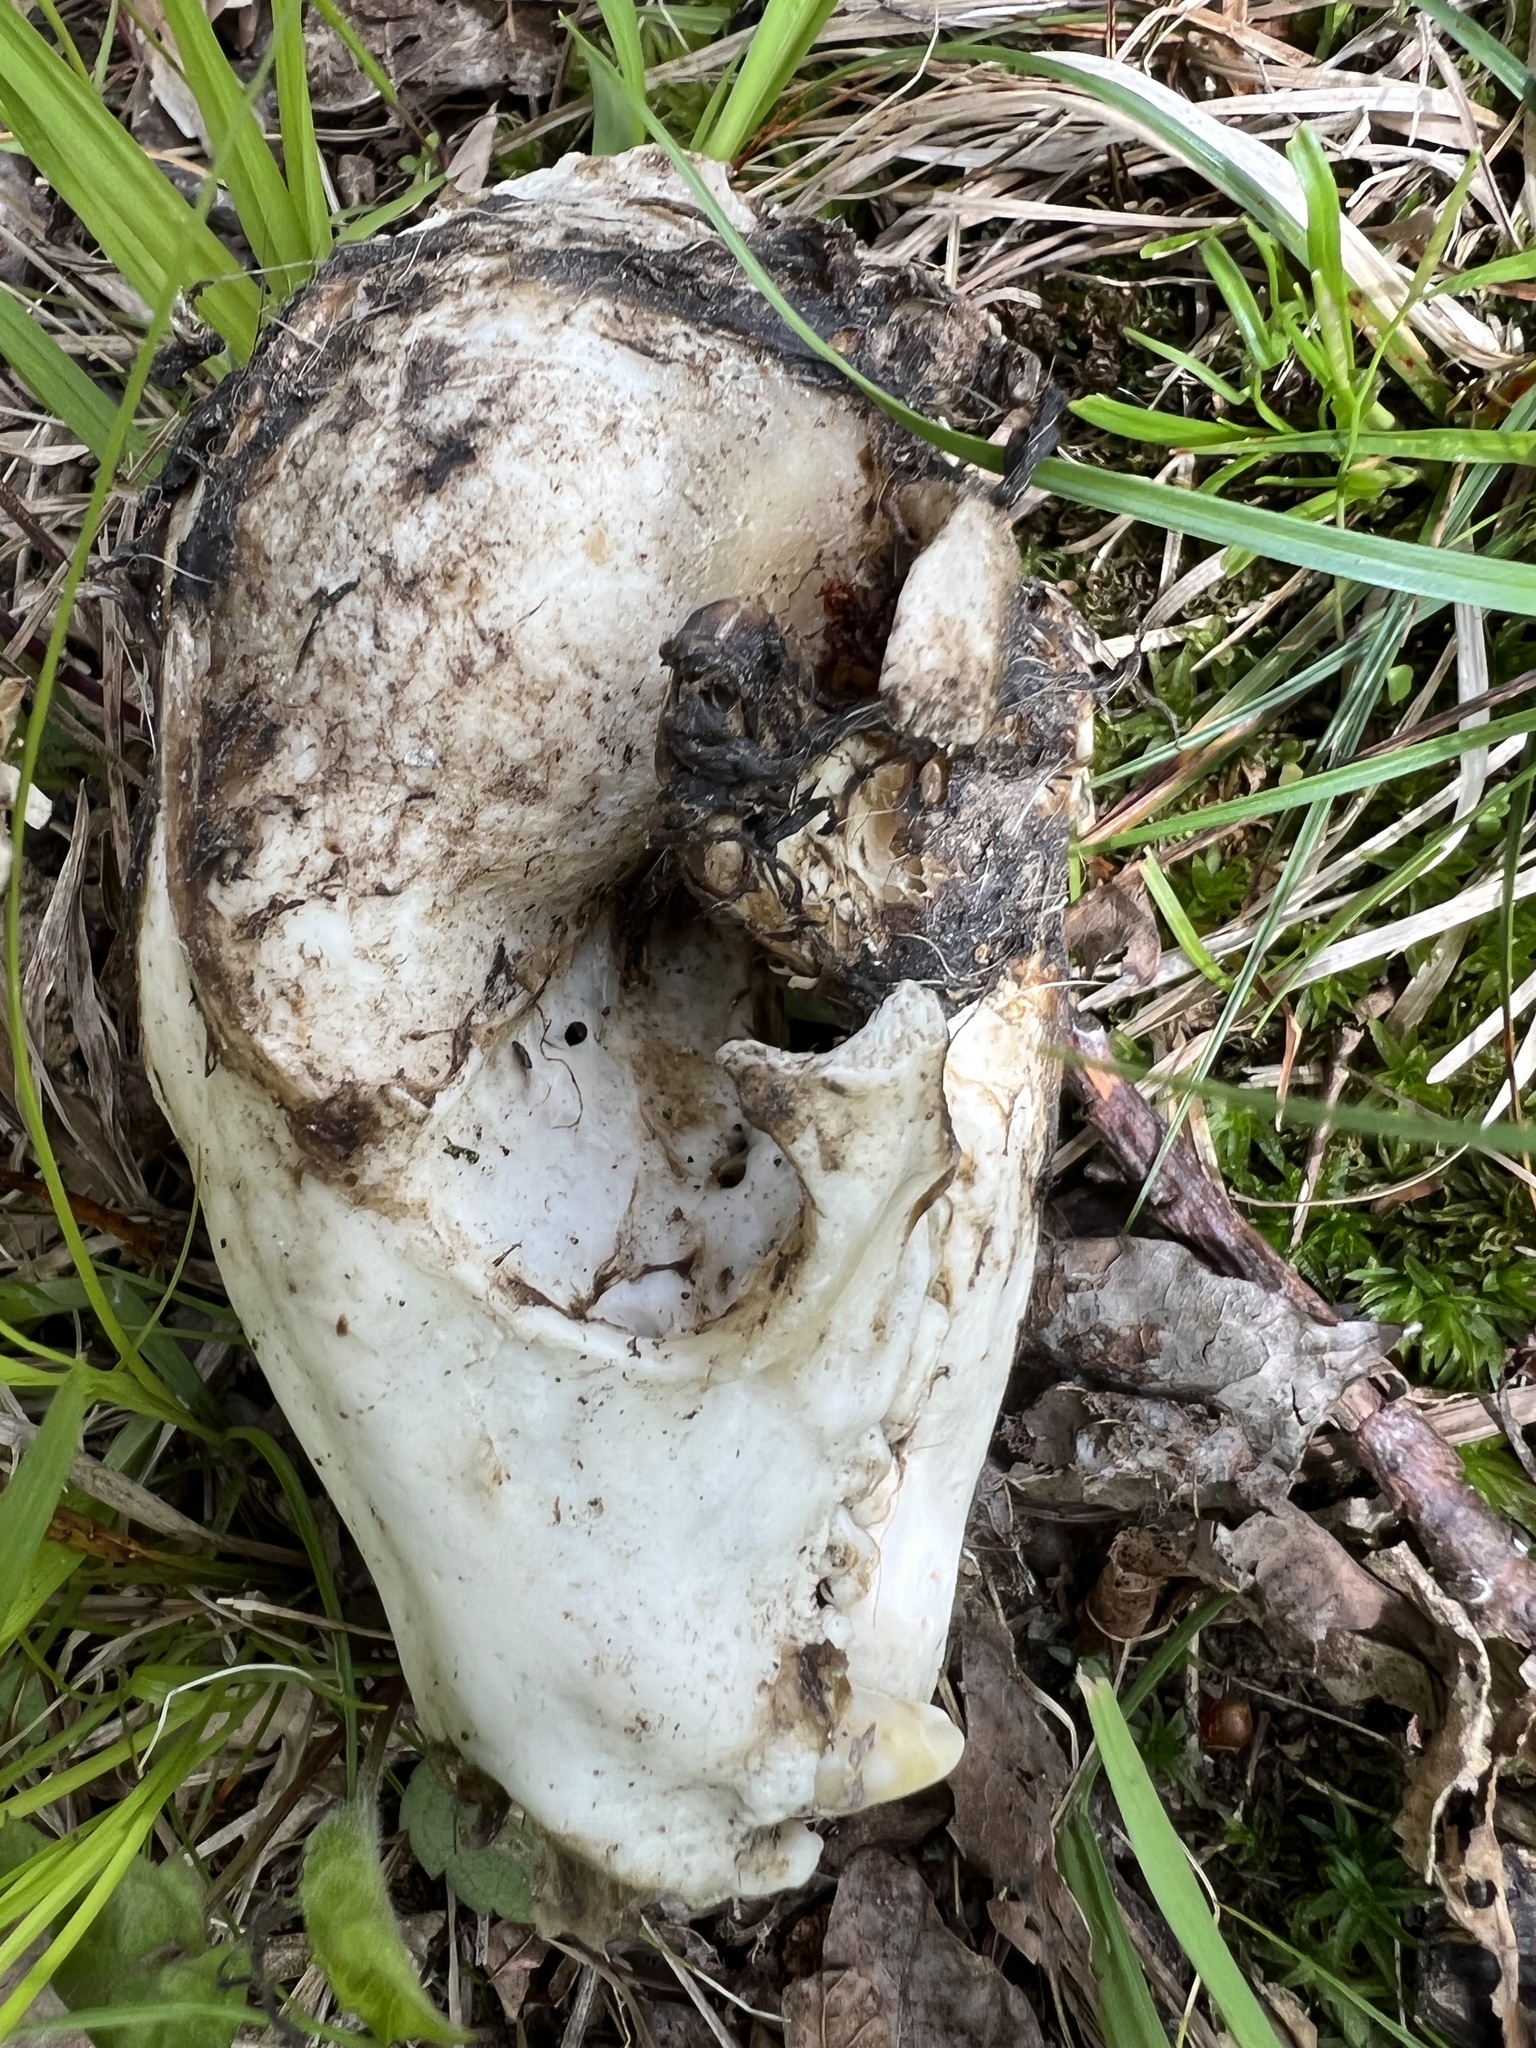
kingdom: Animalia
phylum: Chordata
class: Mammalia
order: Carnivora
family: Procyonidae
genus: Procyon
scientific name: Procyon lotor
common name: Raccoon
